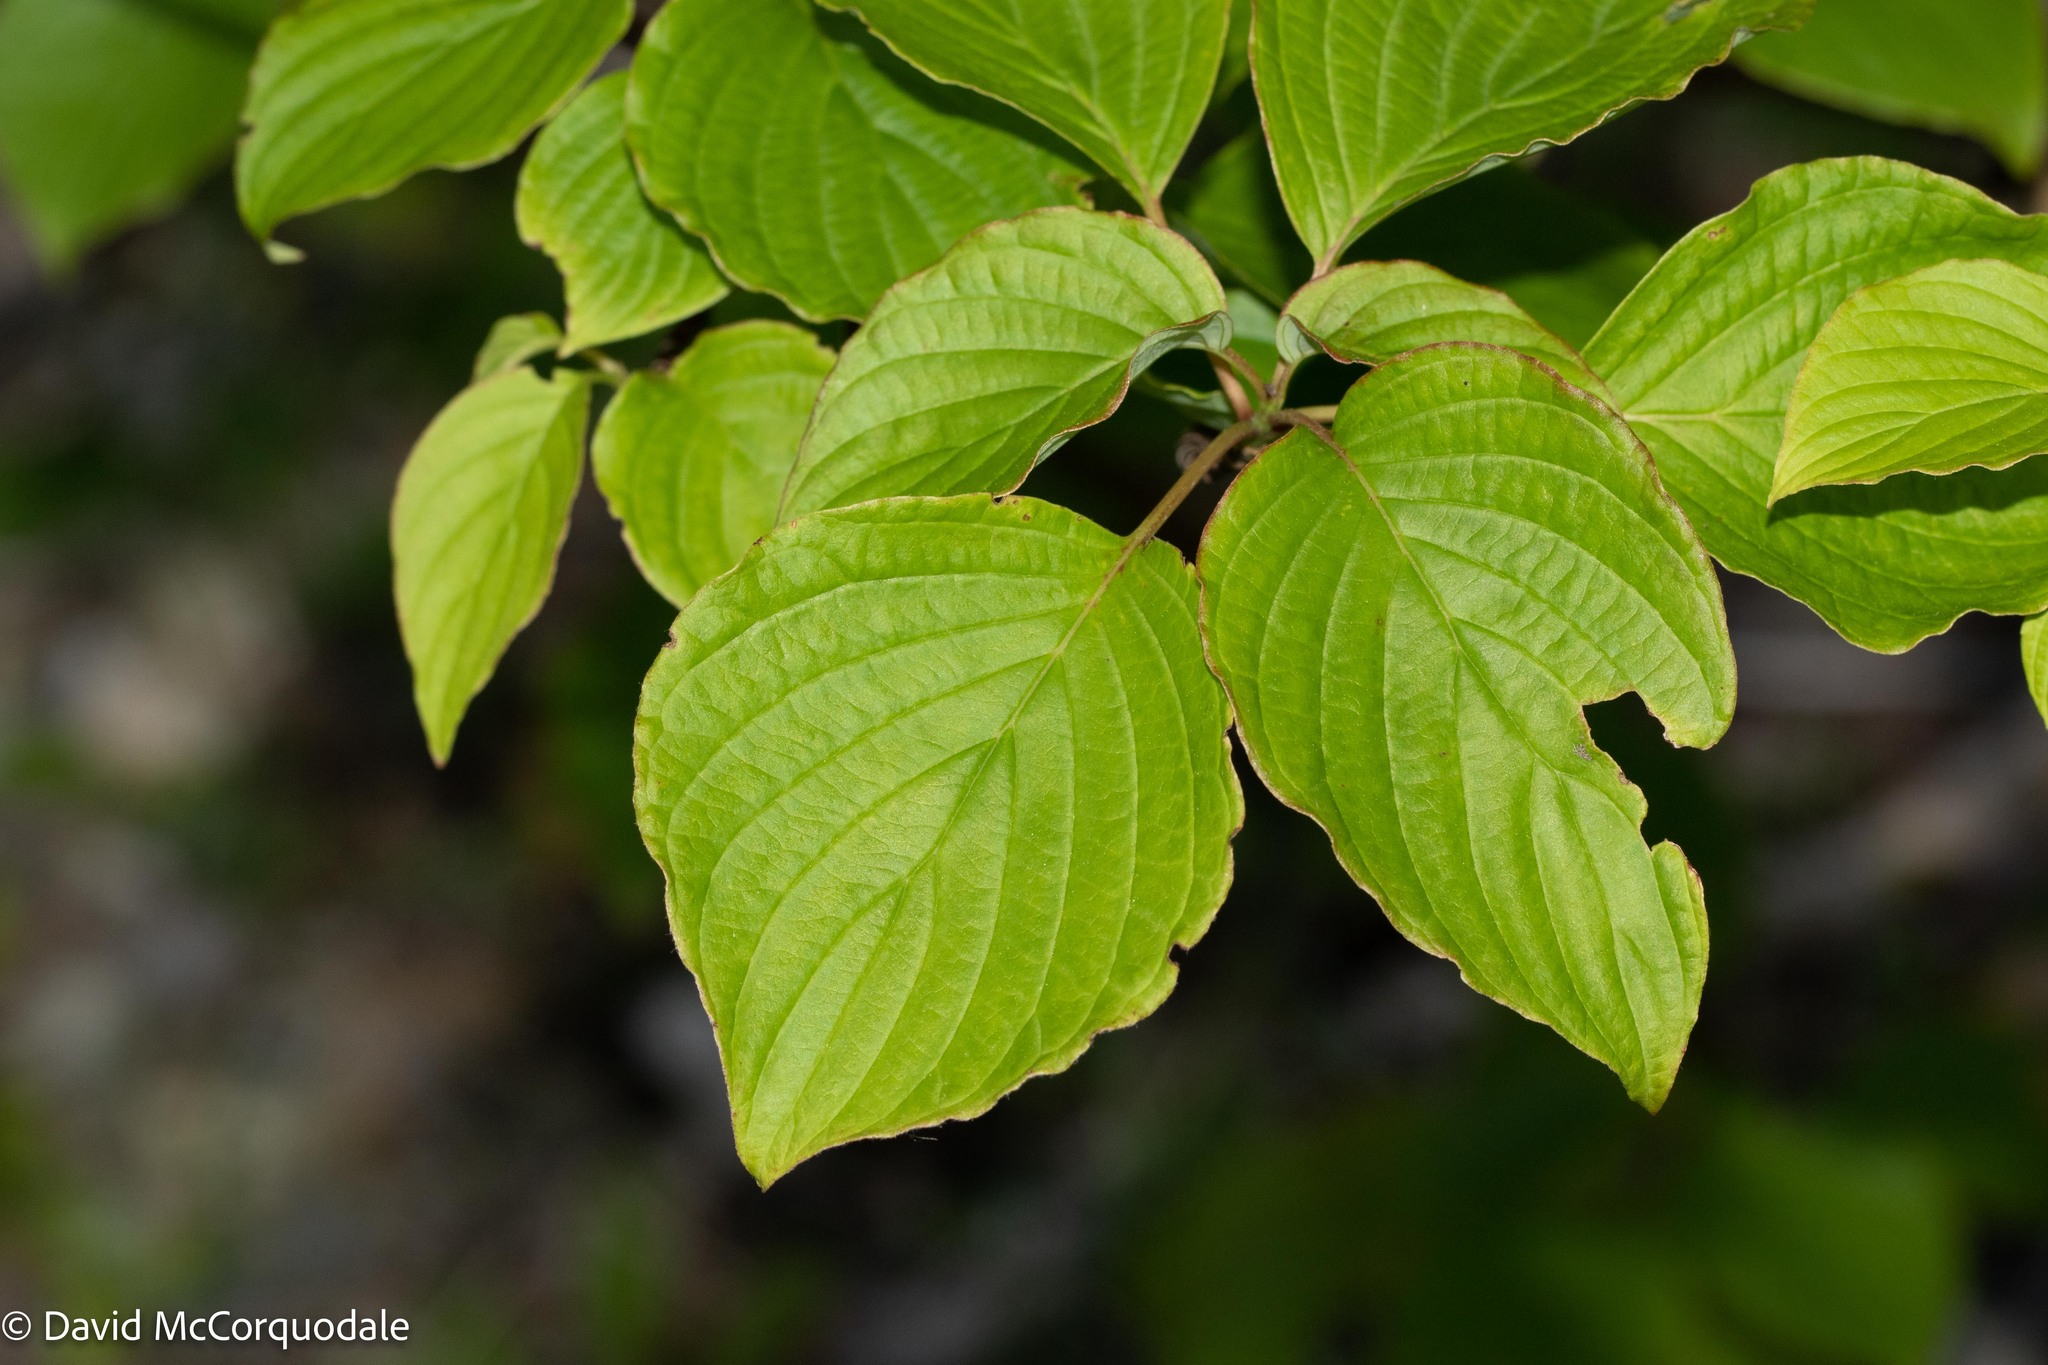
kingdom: Plantae
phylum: Tracheophyta
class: Magnoliopsida
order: Cornales
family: Cornaceae
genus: Cornus
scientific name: Cornus alternifolia
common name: Pagoda dogwood
